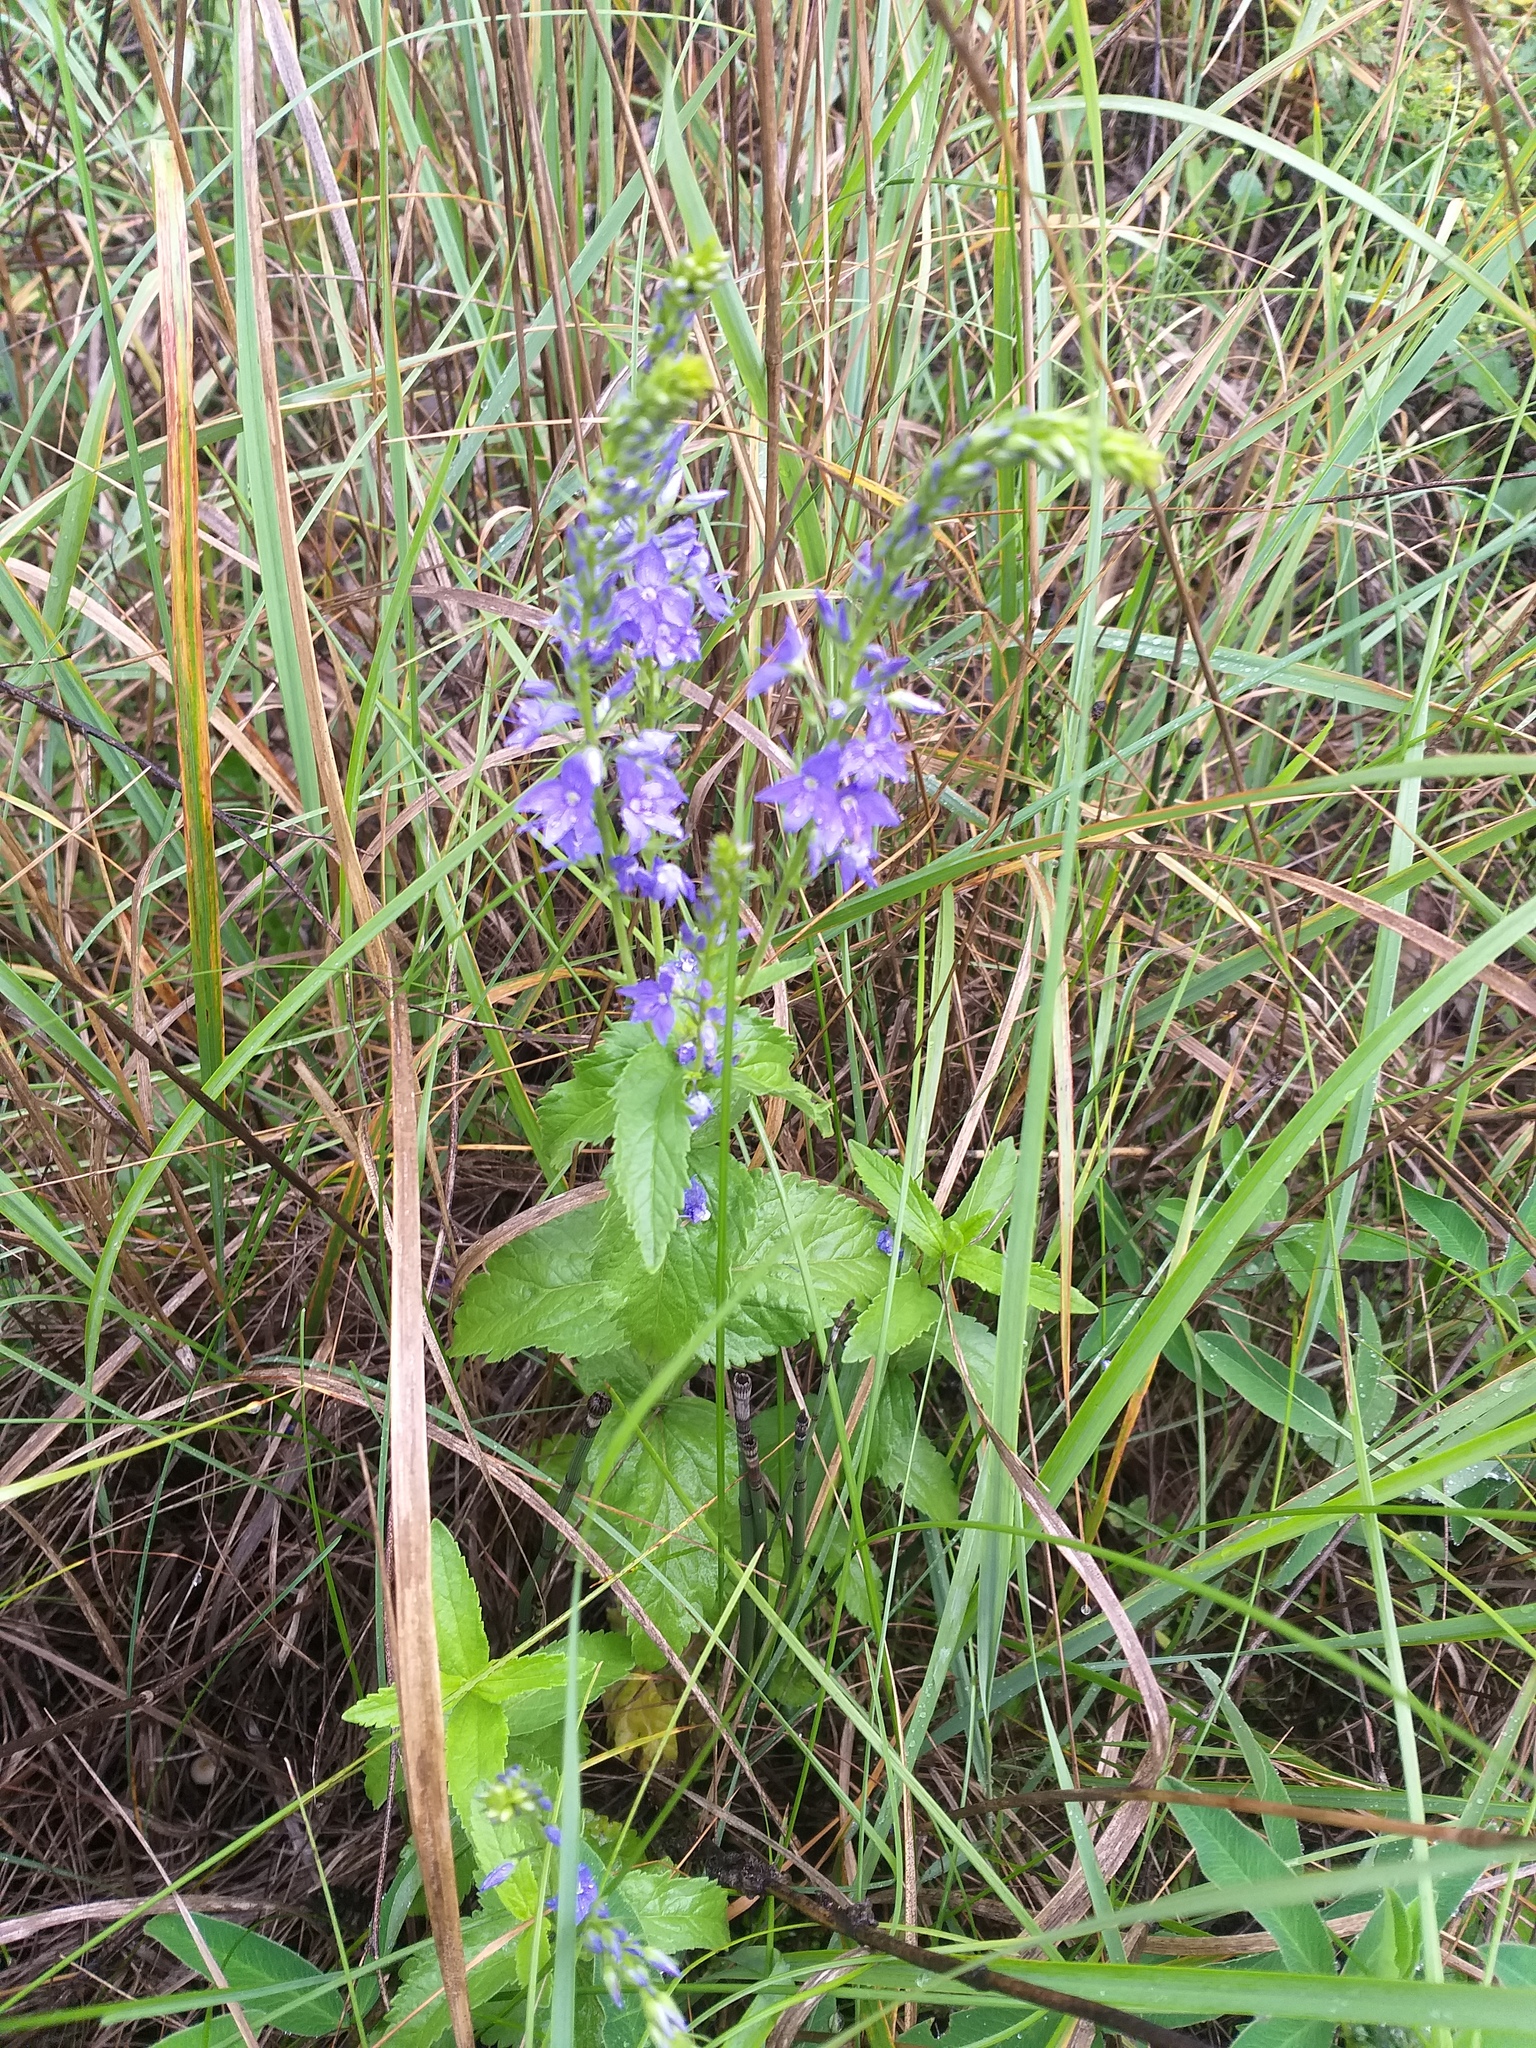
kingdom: Plantae
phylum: Tracheophyta
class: Magnoliopsida
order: Lamiales
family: Plantaginaceae
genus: Veronica
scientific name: Veronica teucrium
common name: Large speedwell
